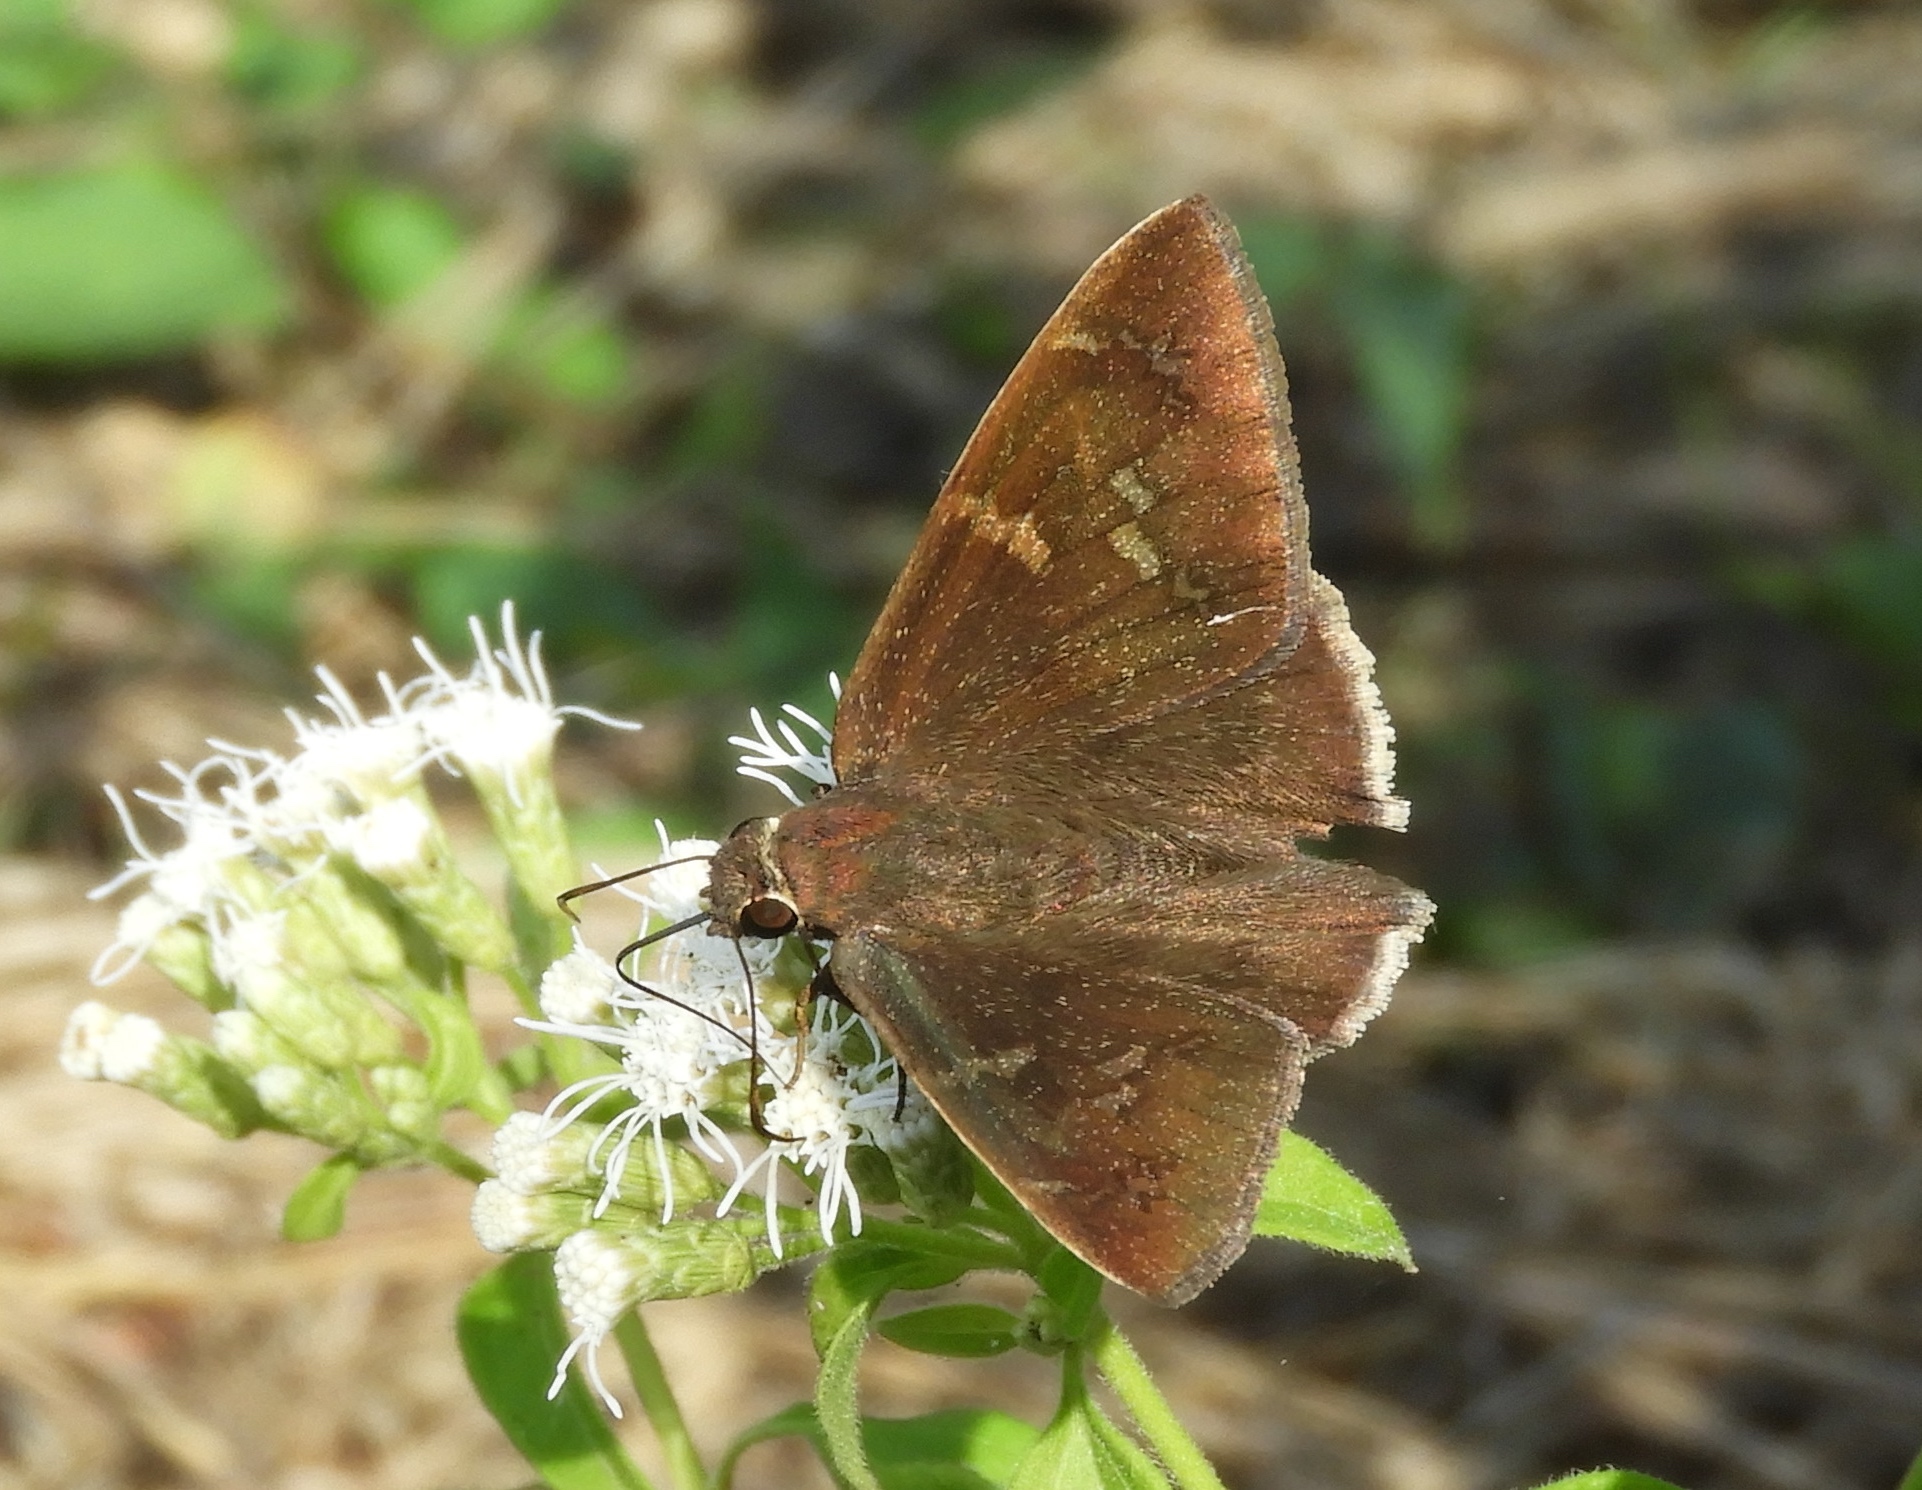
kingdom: Animalia
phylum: Arthropoda
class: Insecta
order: Lepidoptera
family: Hesperiidae
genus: Achalarus
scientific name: Achalarus Murgaria albociliatus
